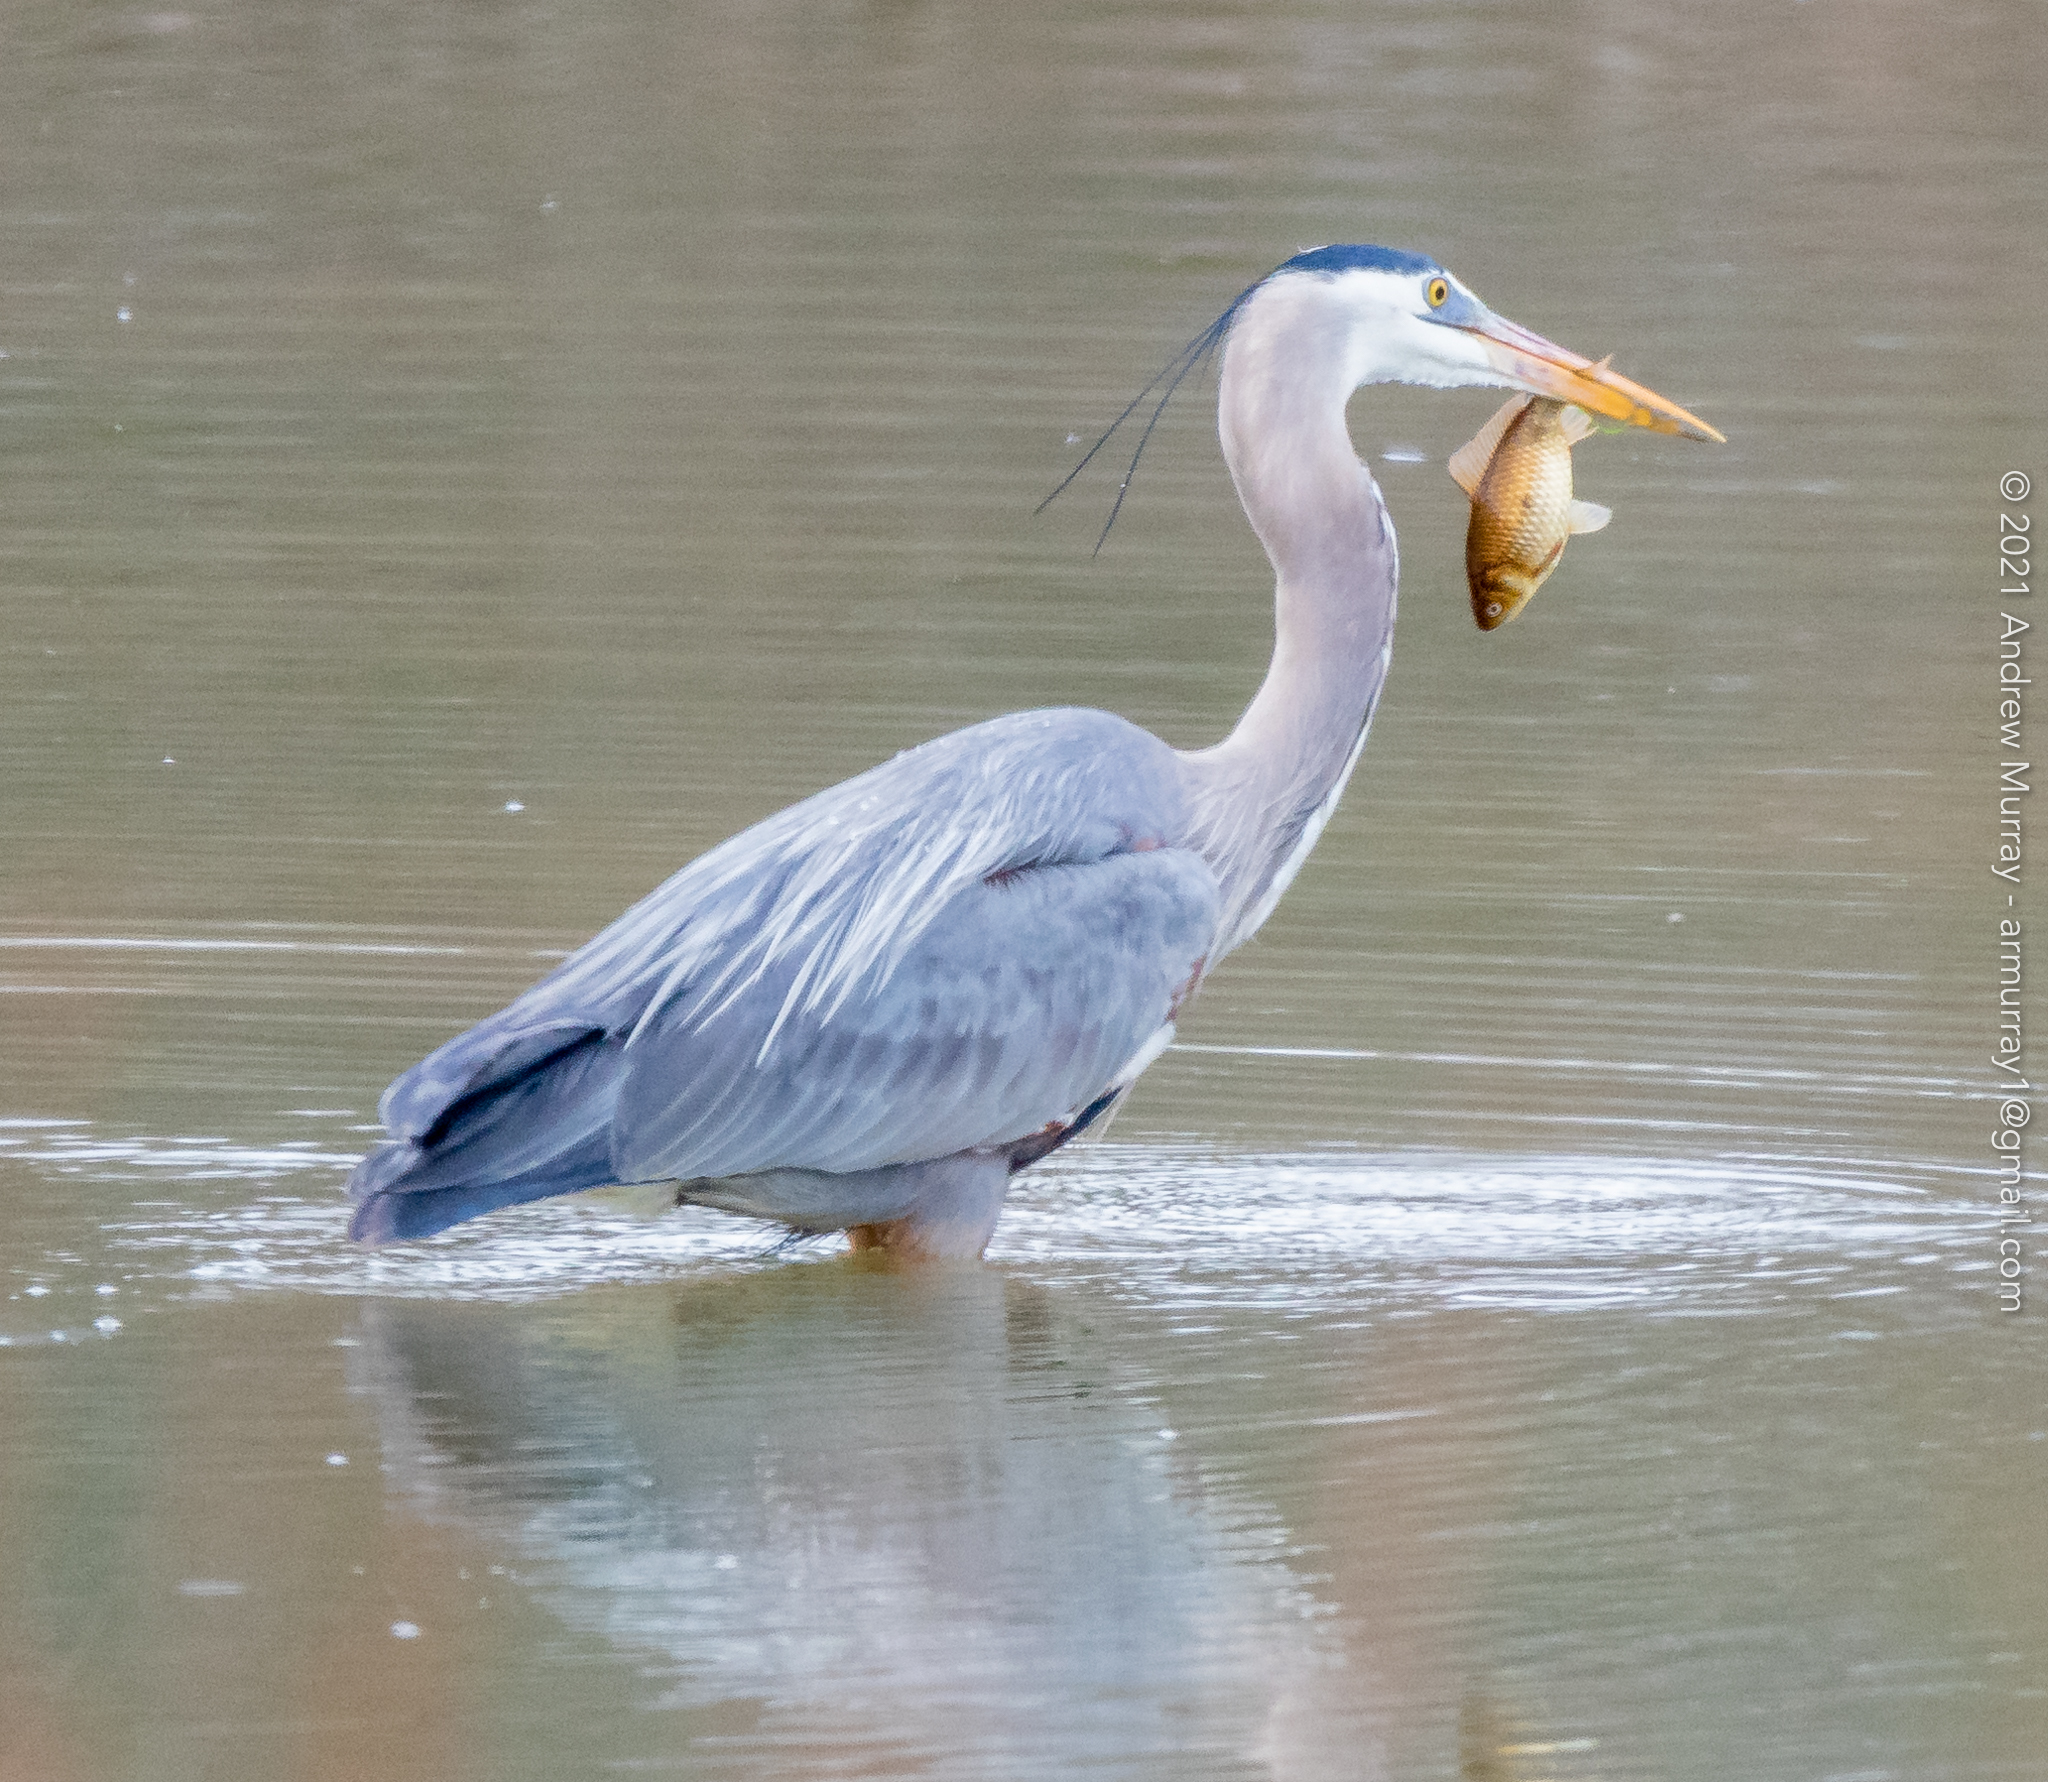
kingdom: Animalia
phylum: Chordata
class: Aves
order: Pelecaniformes
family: Ardeidae
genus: Ardea
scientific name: Ardea herodias
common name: Great blue heron
